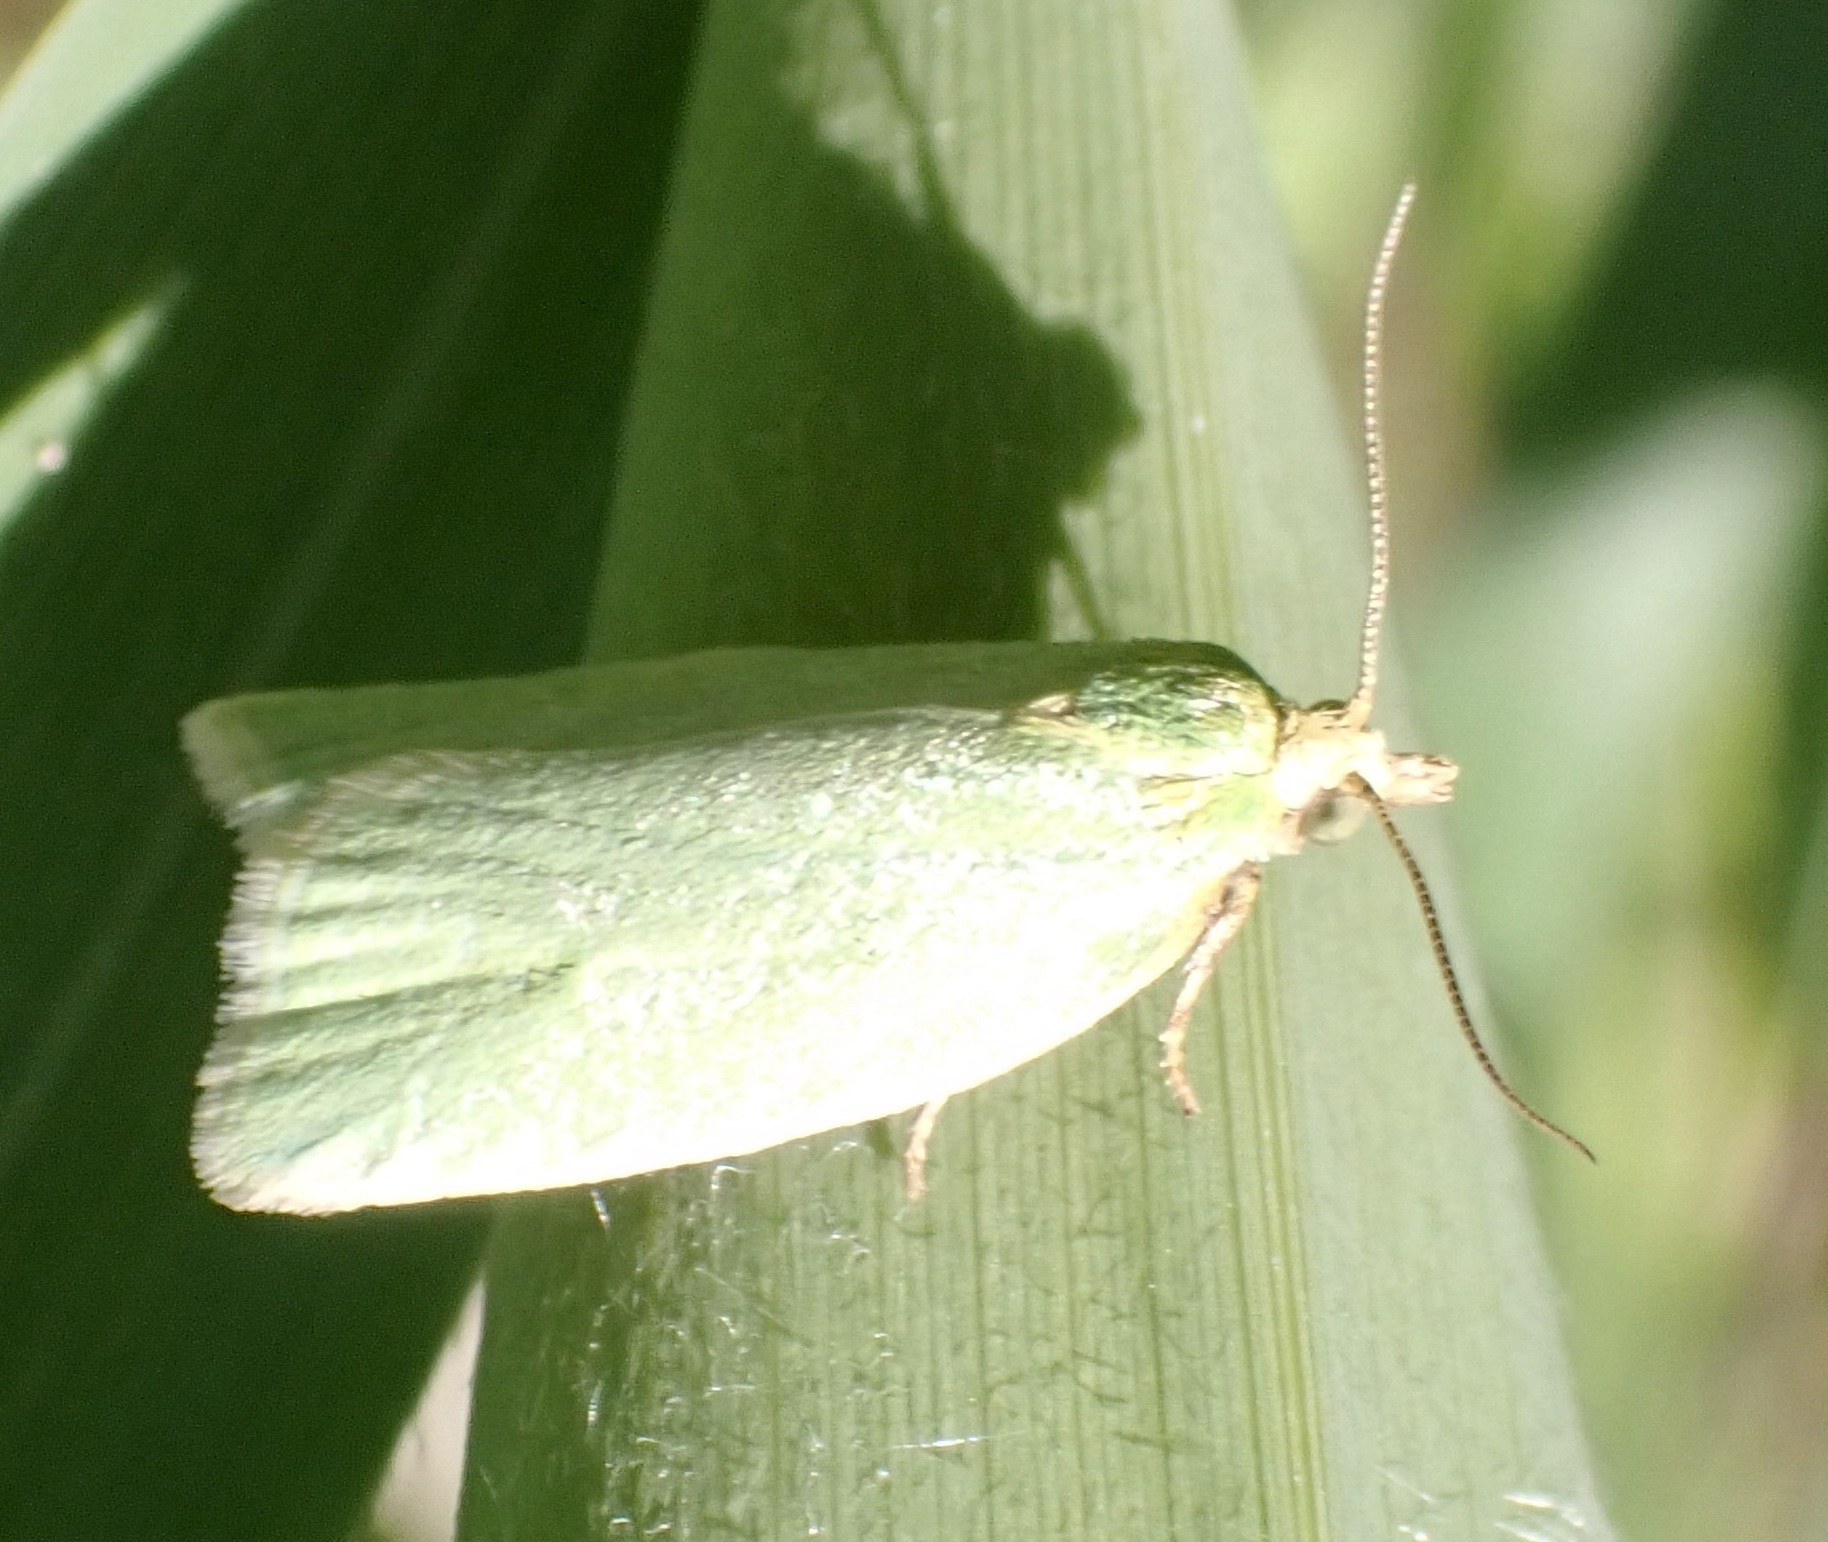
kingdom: Animalia
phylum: Arthropoda
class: Insecta
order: Lepidoptera
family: Tortricidae
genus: Tortrix
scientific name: Tortrix viridana
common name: Green oak tortrix
